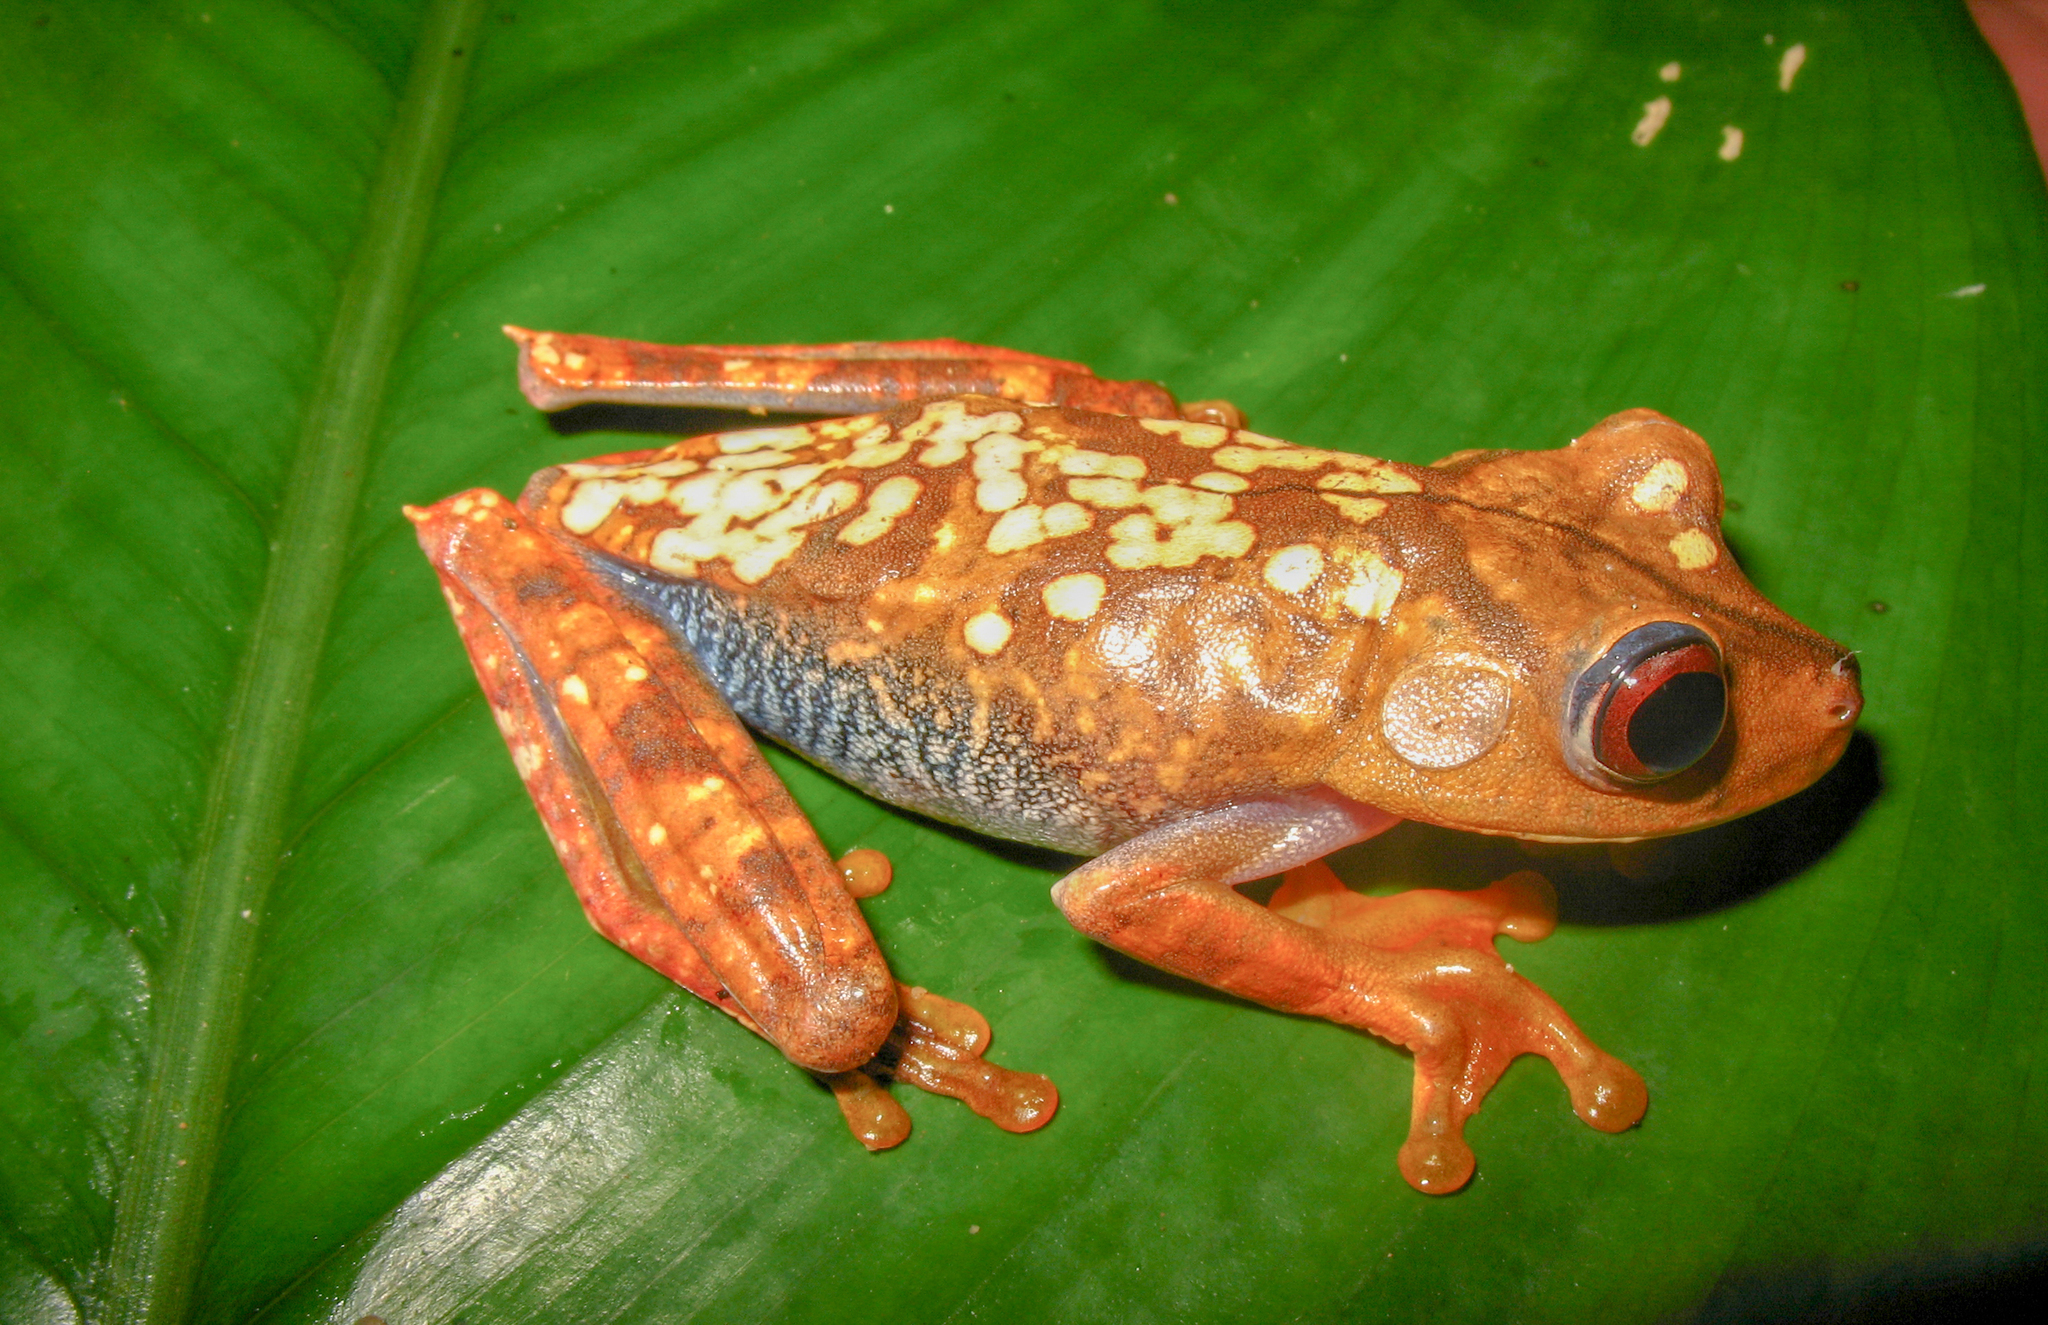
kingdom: Animalia
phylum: Chordata
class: Amphibia
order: Anura
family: Hylidae
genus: Boana
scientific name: Boana geographica
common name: Map treefrog
